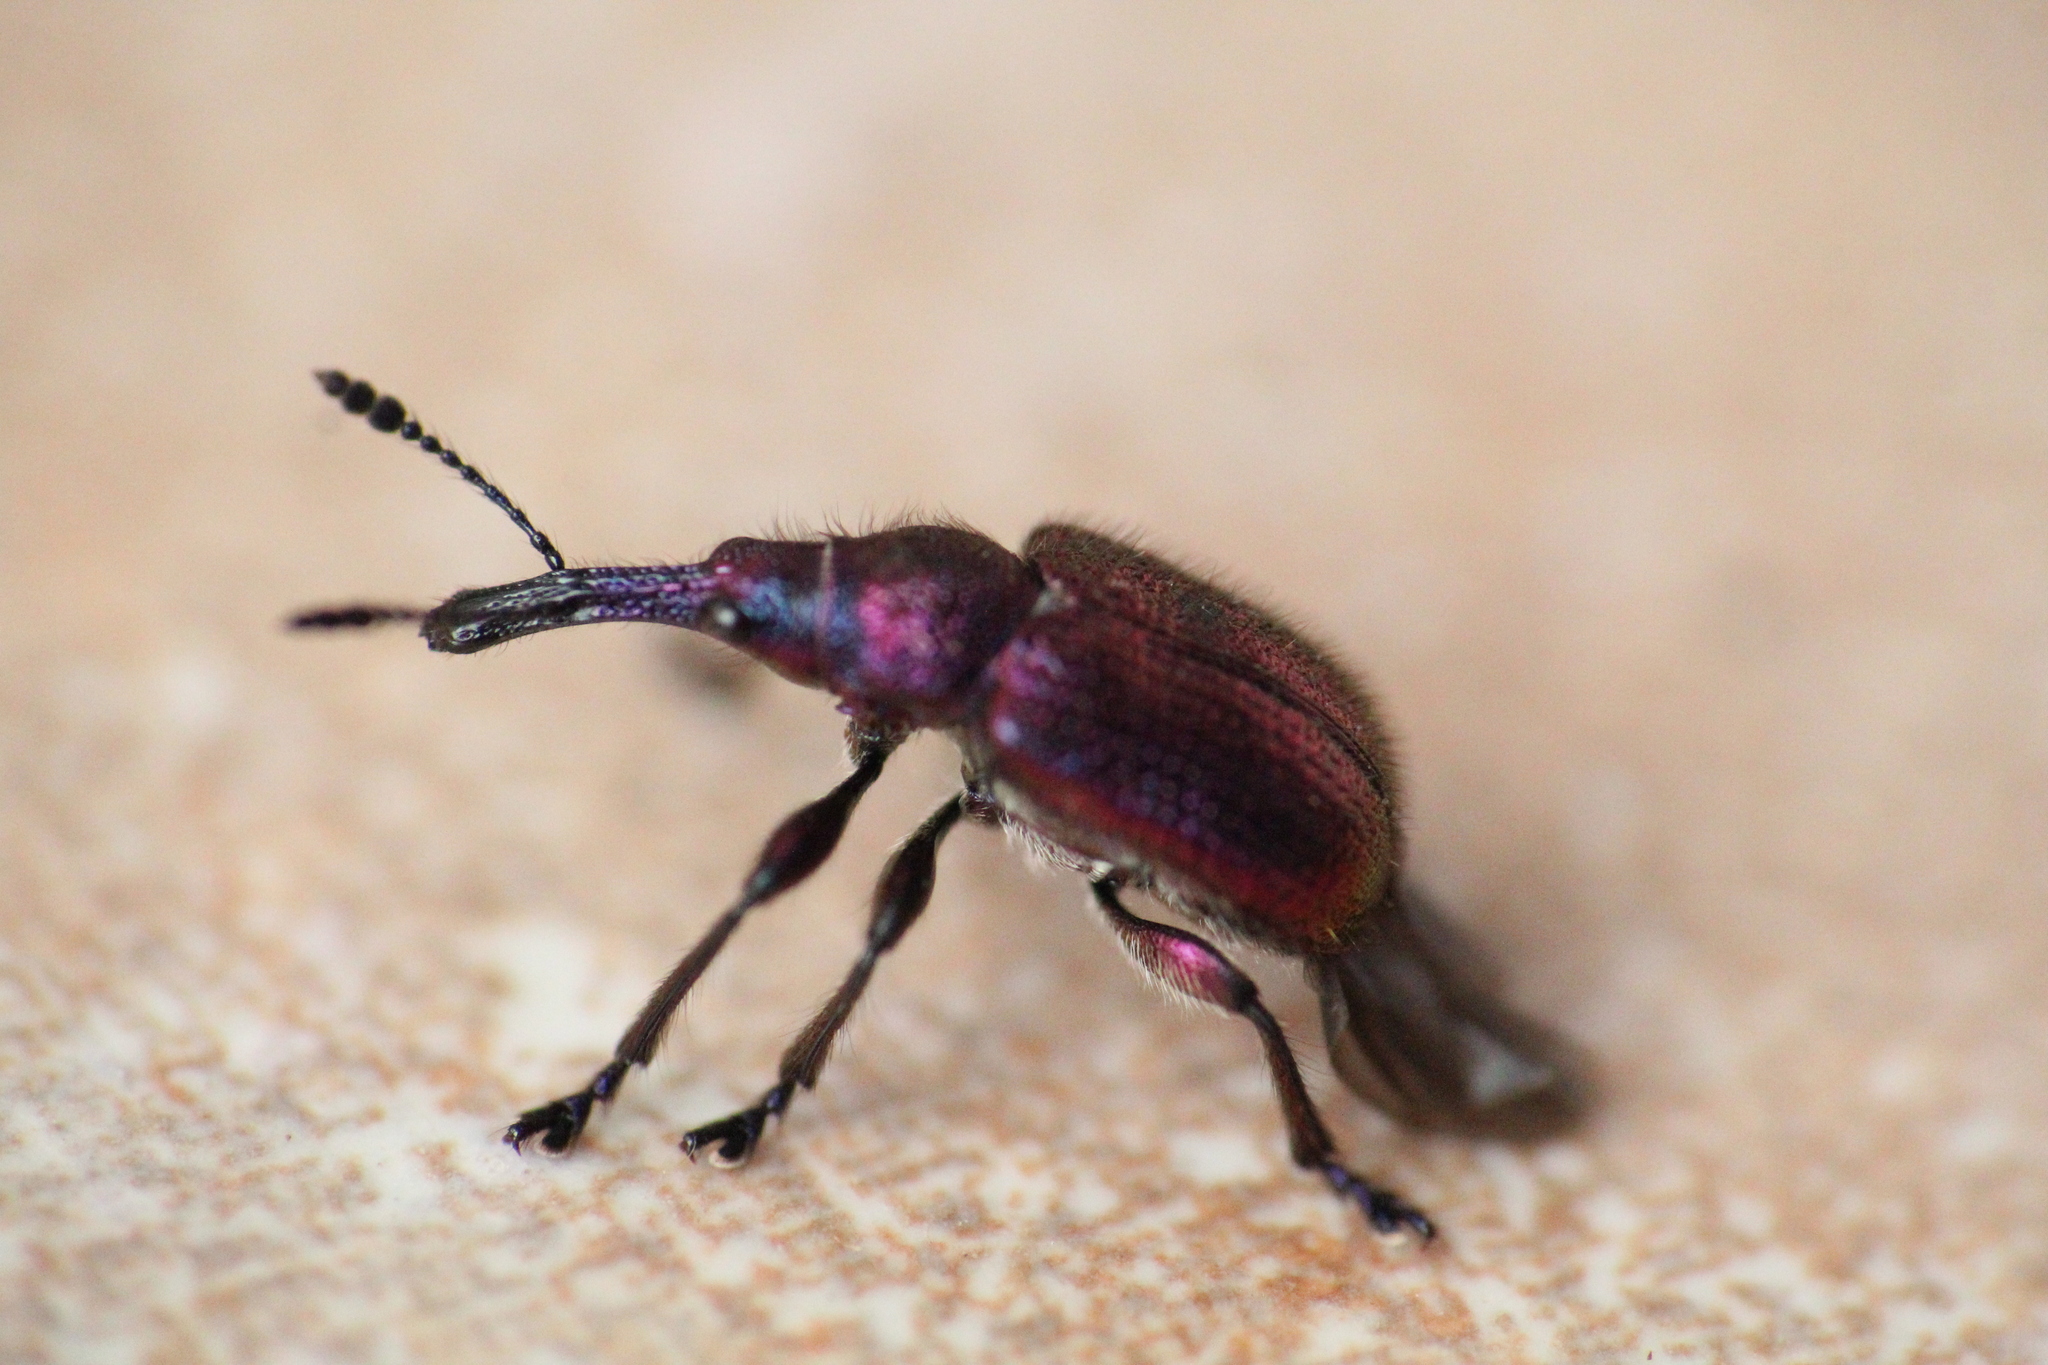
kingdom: Animalia
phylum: Arthropoda
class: Insecta
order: Coleoptera
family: Attelabidae
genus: Rhynchites
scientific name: Rhynchites bacchus
